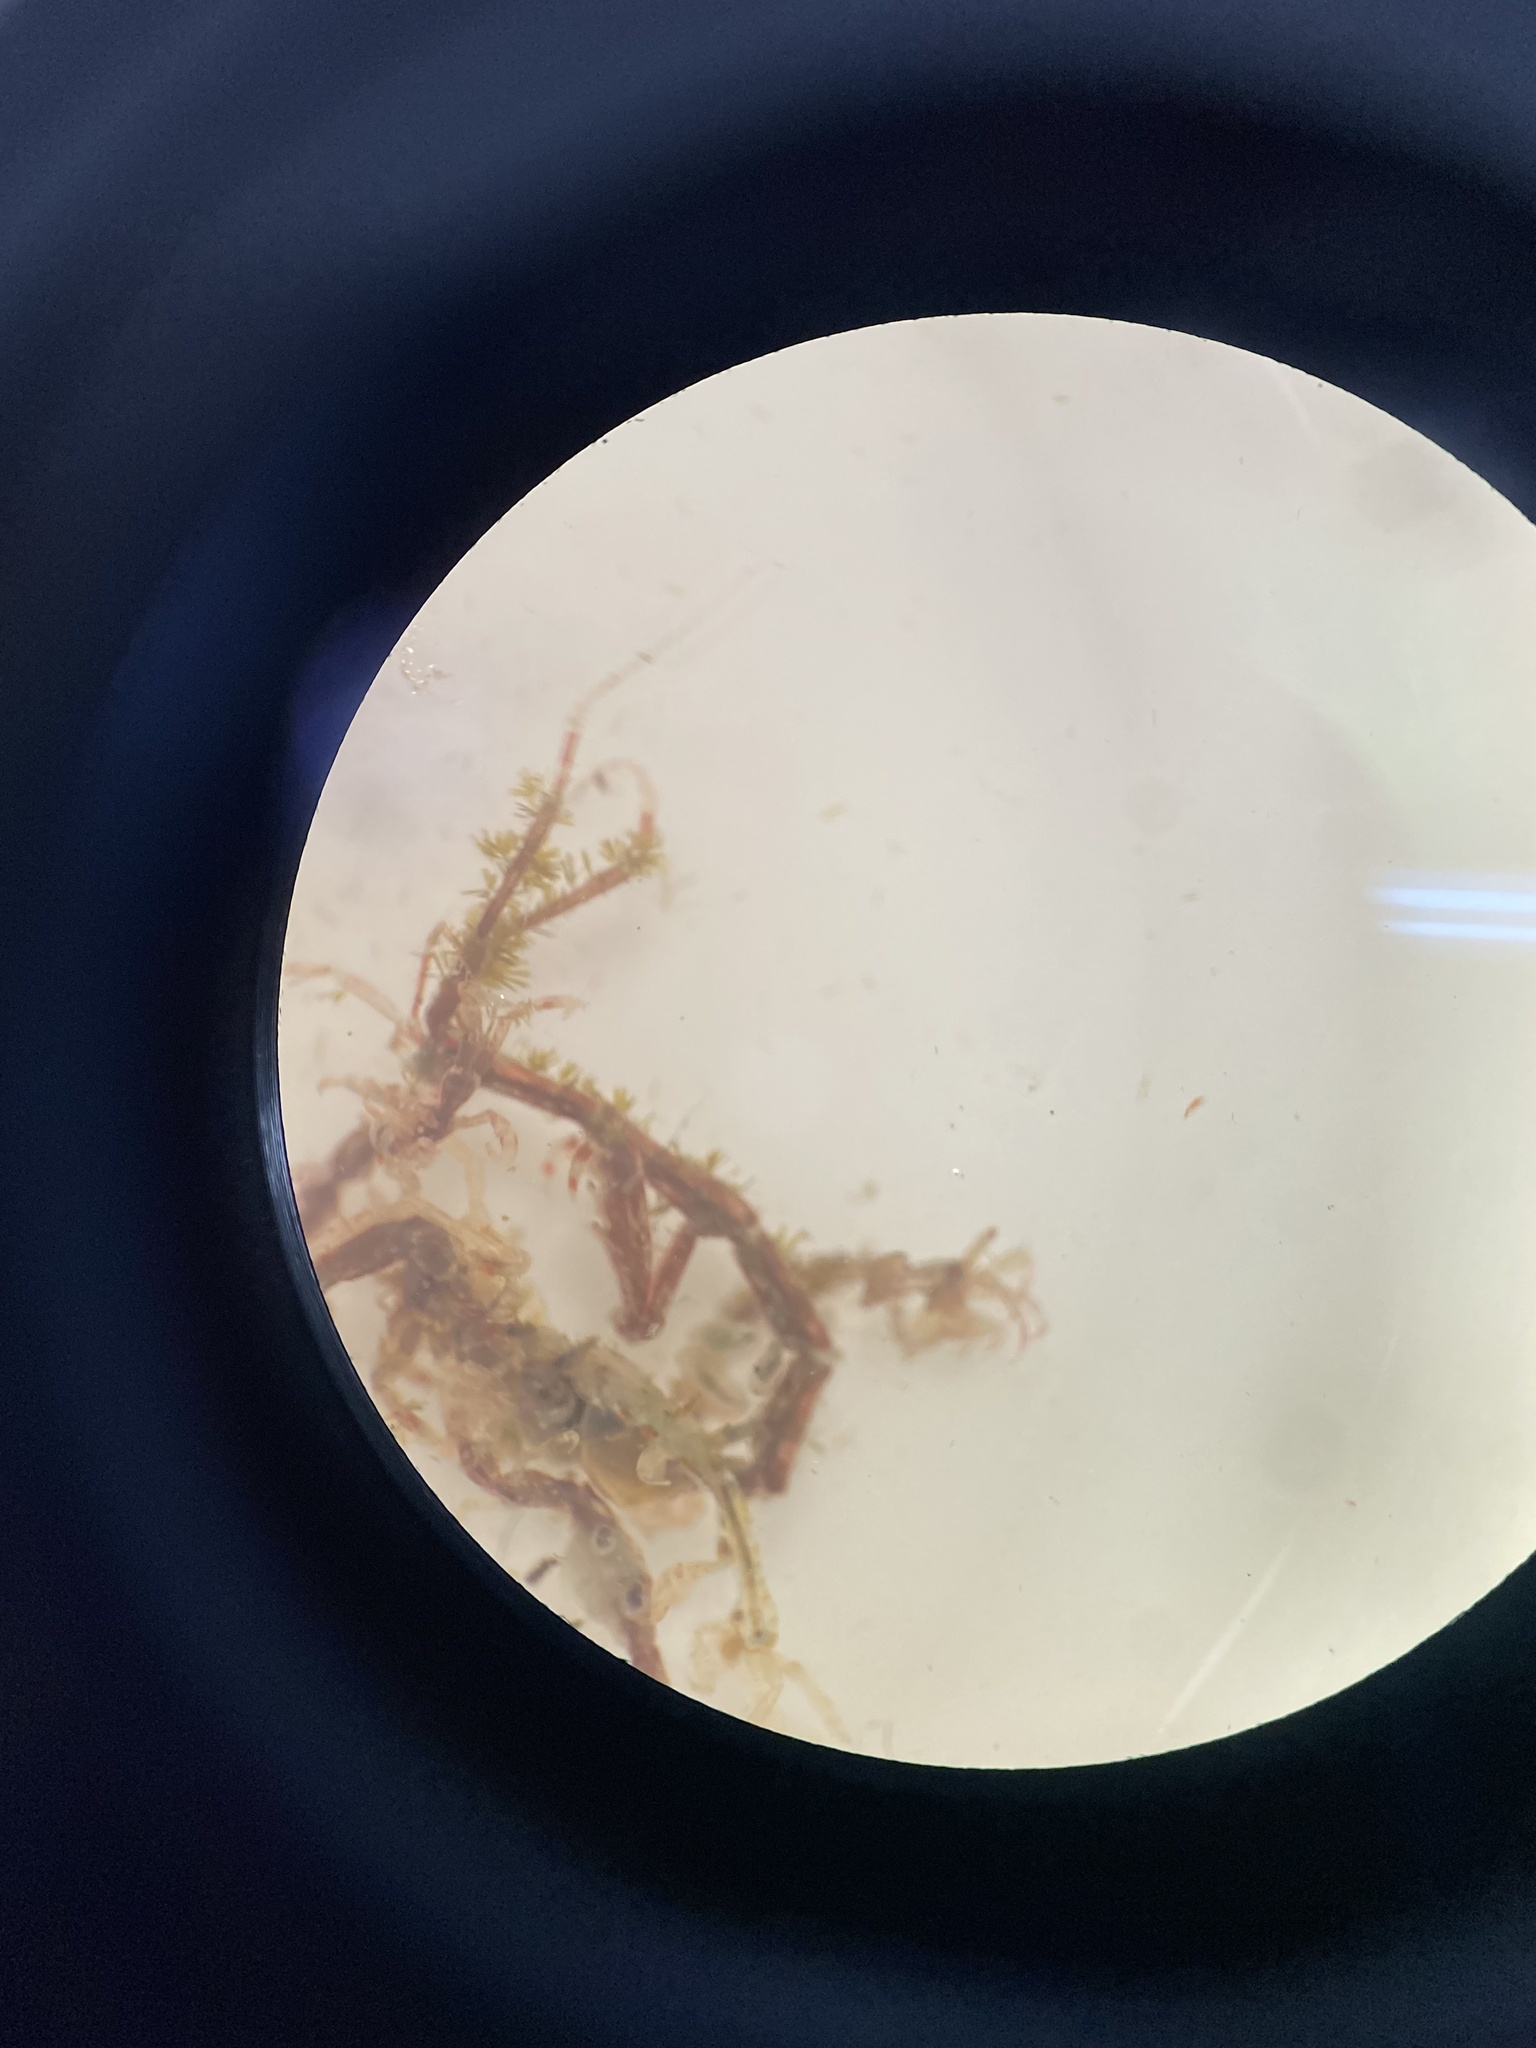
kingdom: Animalia
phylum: Arthropoda
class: Malacostraca
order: Amphipoda
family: Caprellidae
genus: Caprella
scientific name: Caprella scaura
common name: Amphipod
